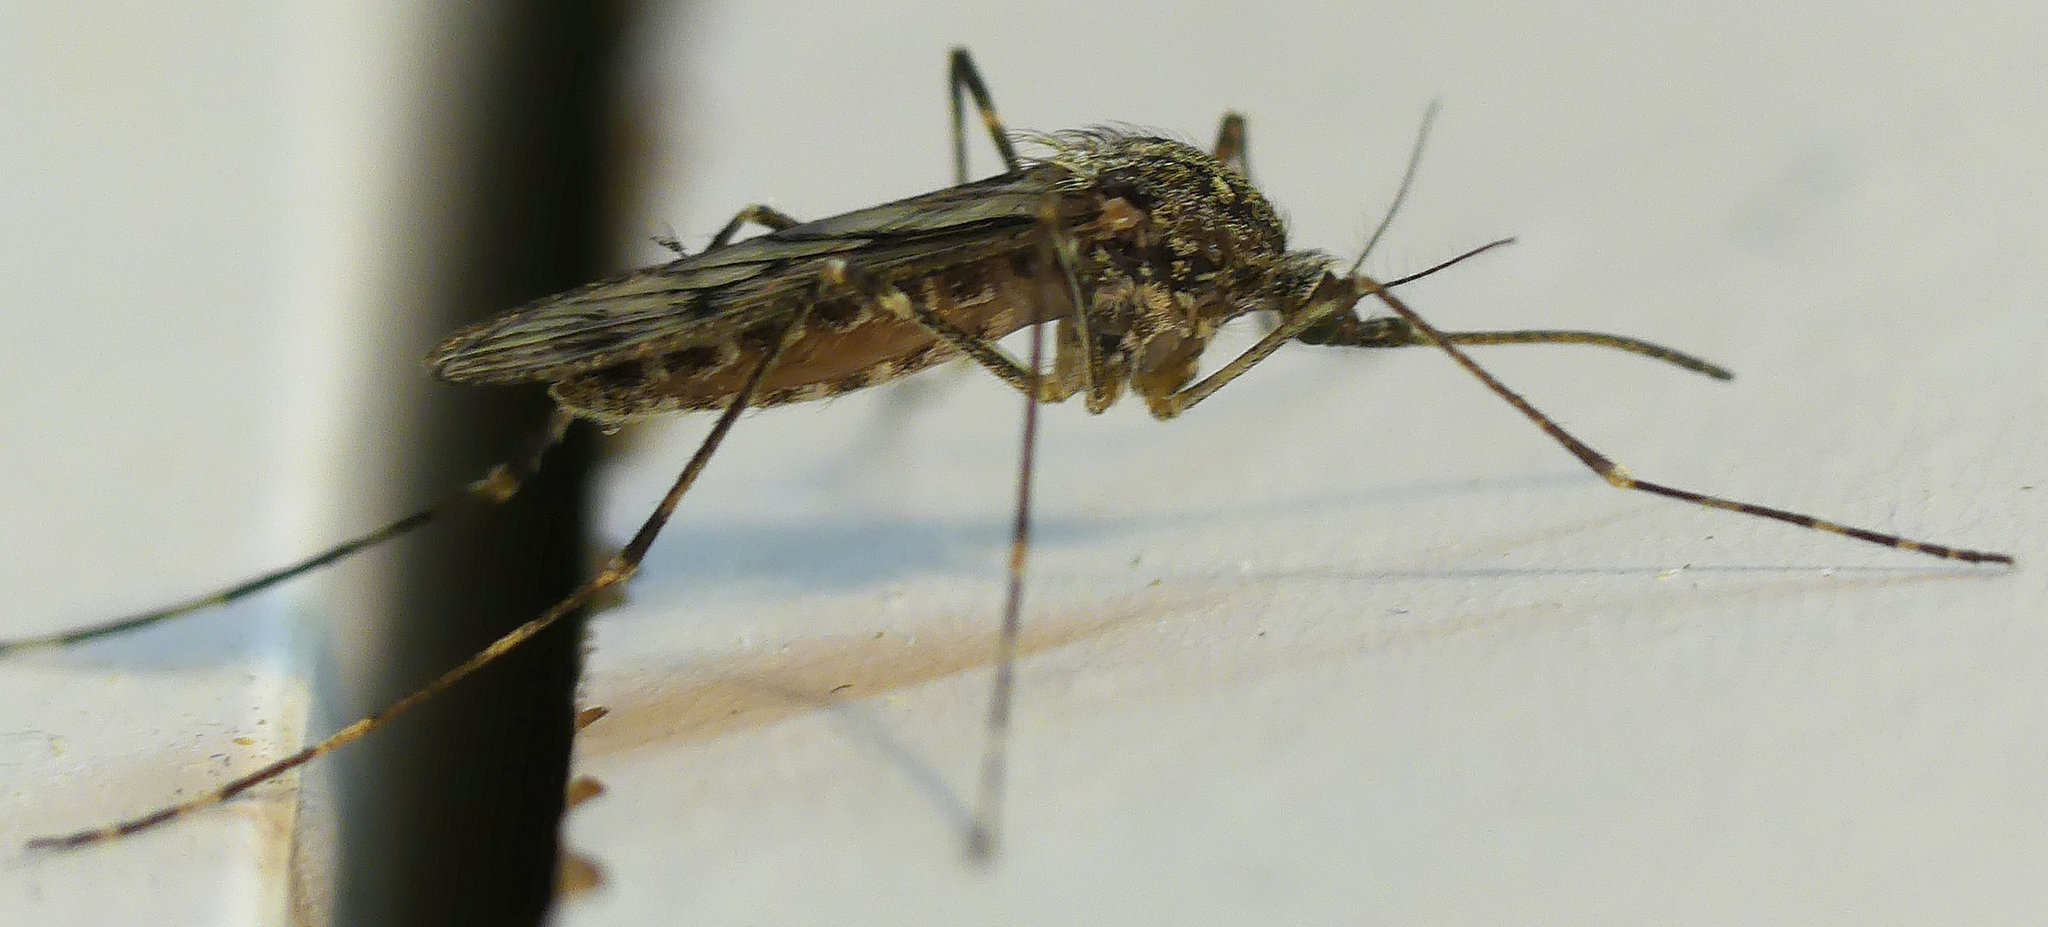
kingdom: Animalia
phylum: Arthropoda
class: Insecta
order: Diptera
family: Culicidae
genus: Culiseta
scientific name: Culiseta annulata
